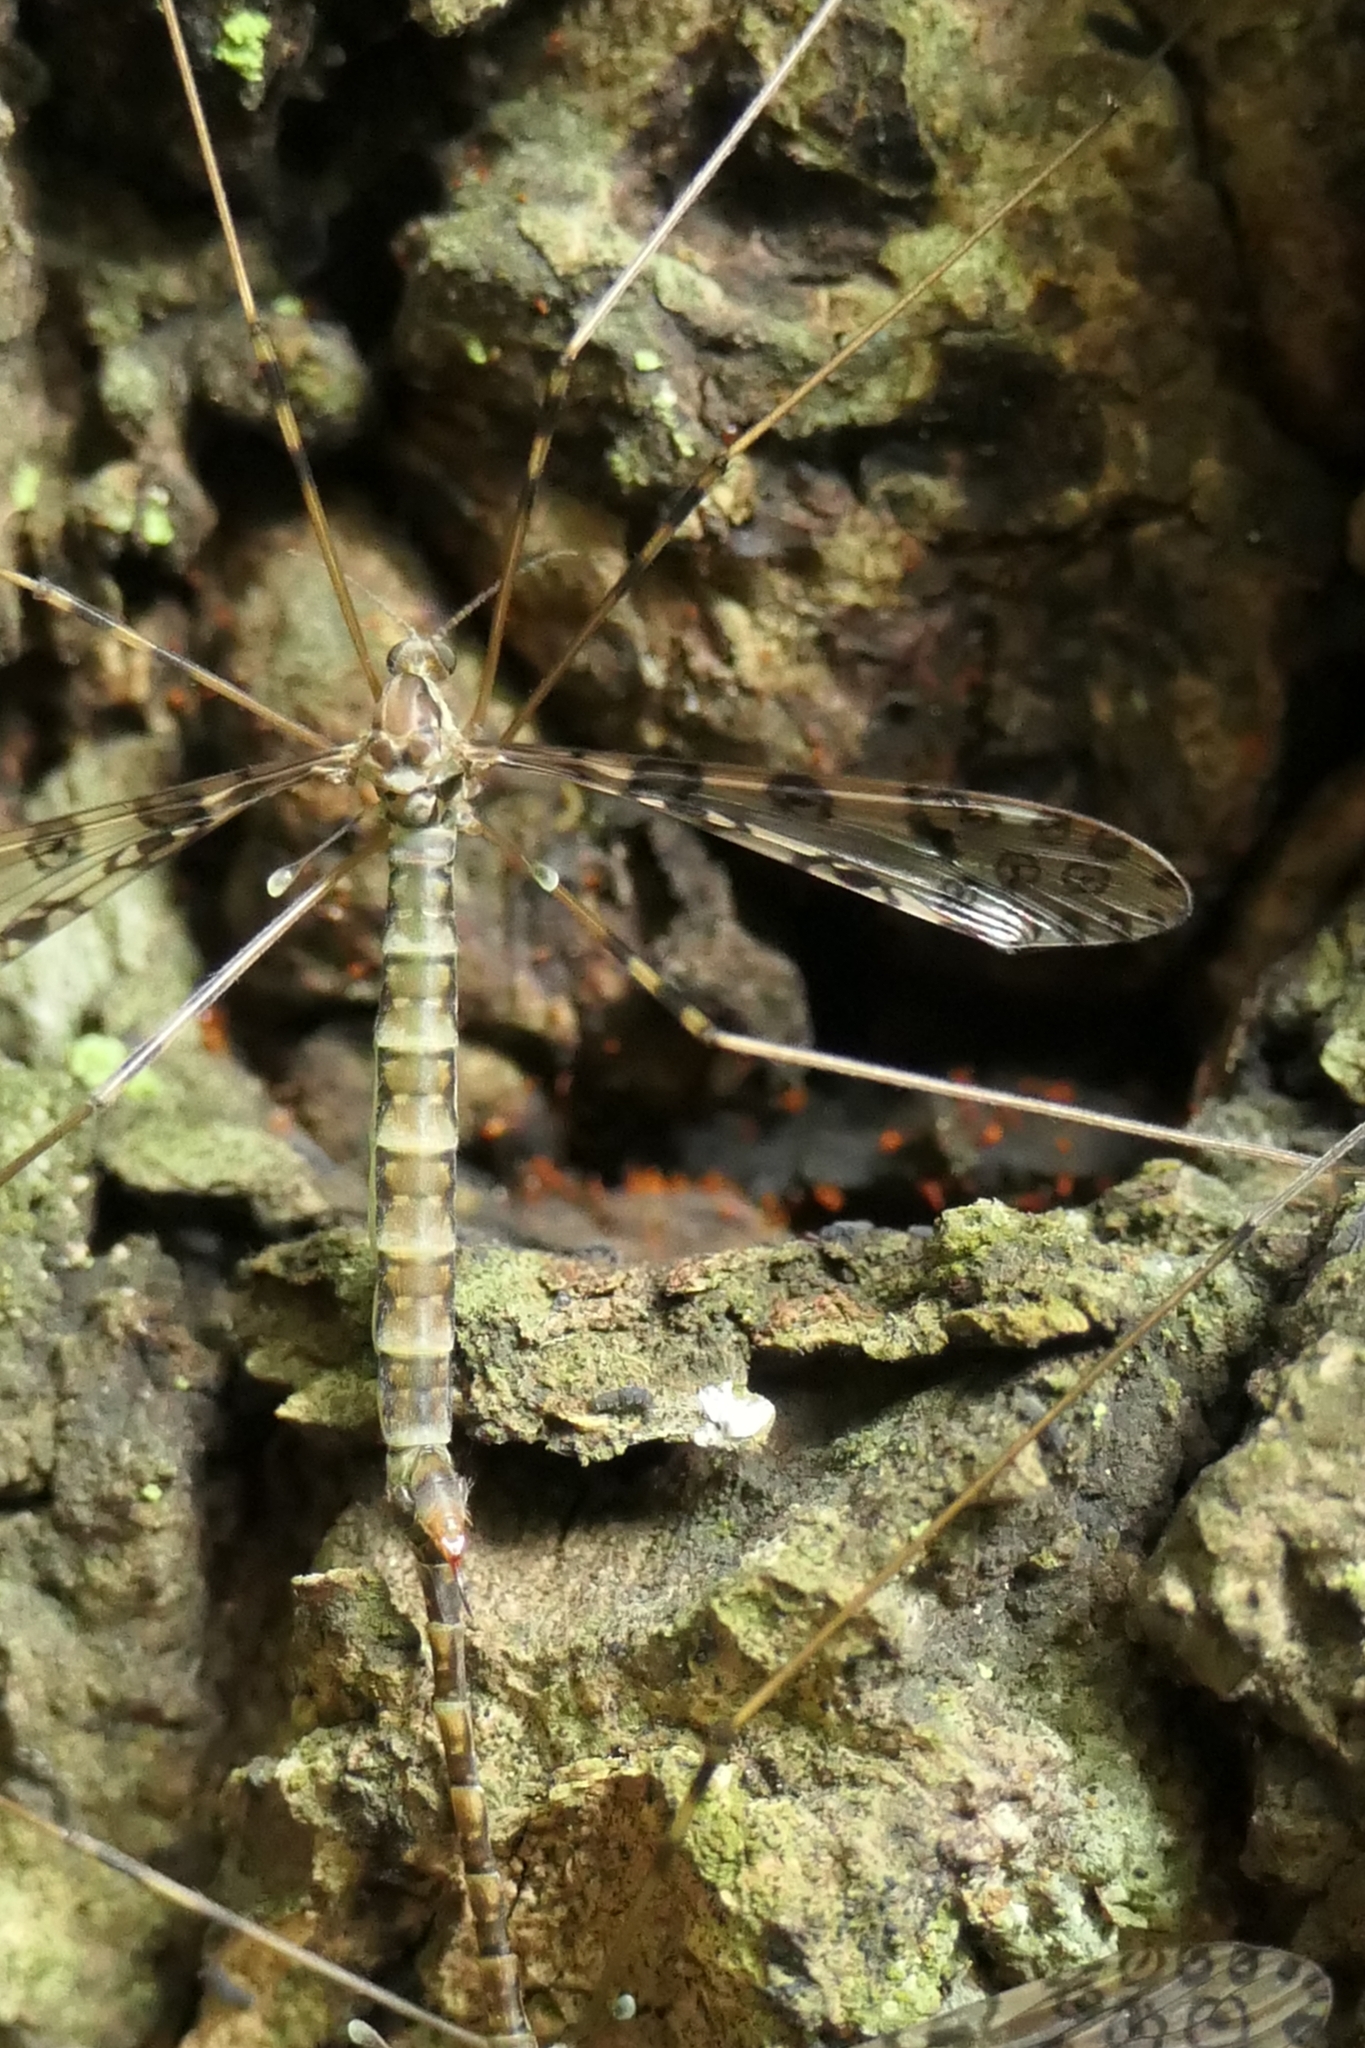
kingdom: Animalia
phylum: Arthropoda
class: Insecta
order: Diptera
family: Limoniidae
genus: Austrolimnophila
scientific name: Austrolimnophila argus
